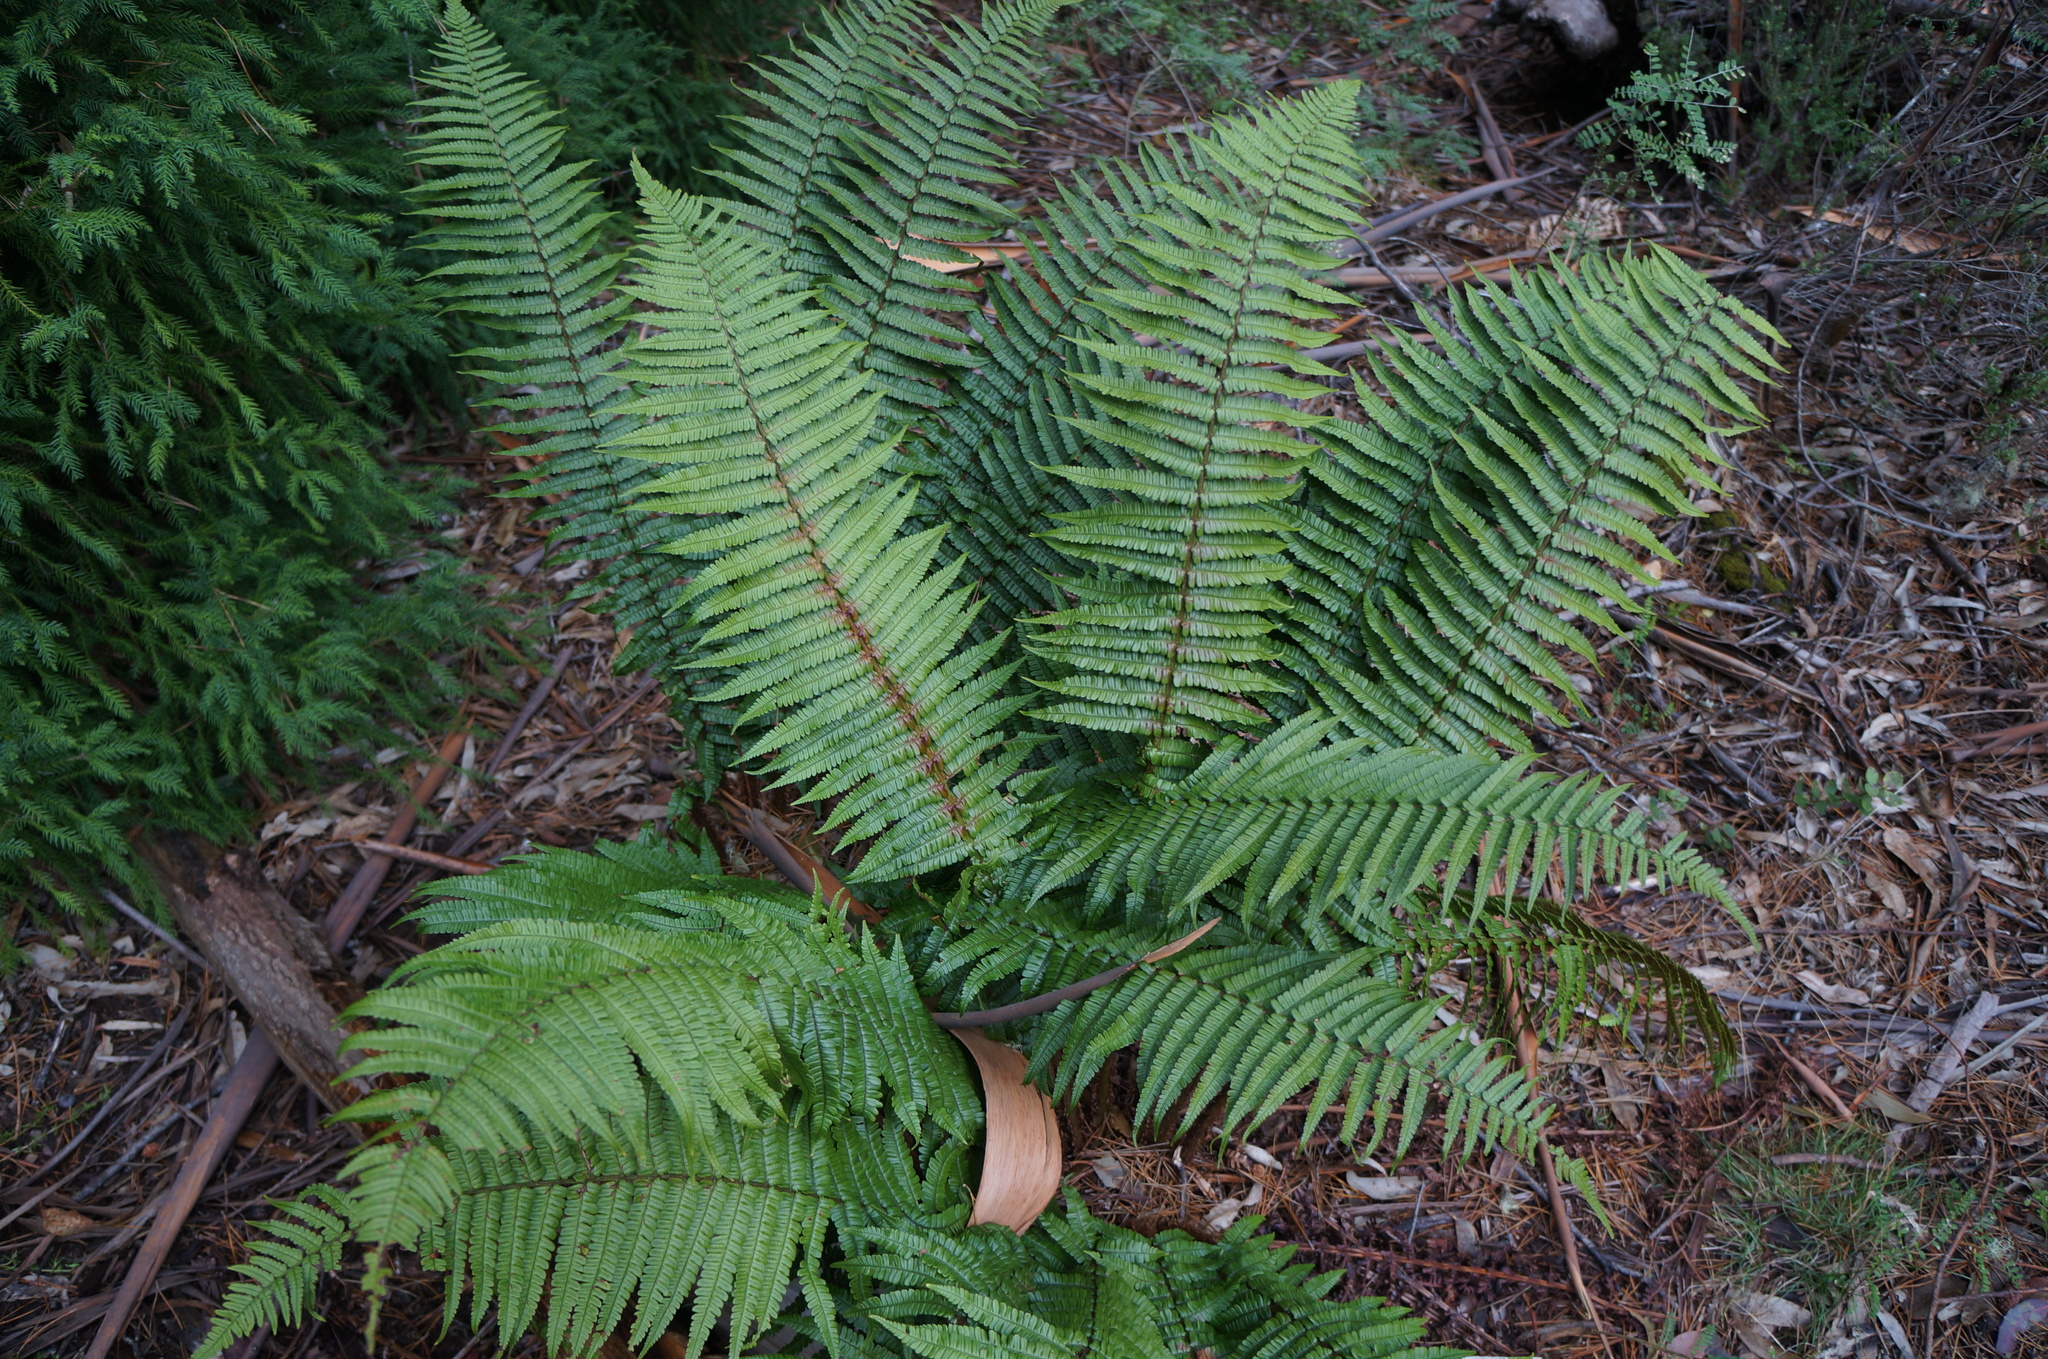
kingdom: Plantae
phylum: Tracheophyta
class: Polypodiopsida
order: Polypodiales
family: Dryopteridaceae
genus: Dryopteris
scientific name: Dryopteris wallichiana
